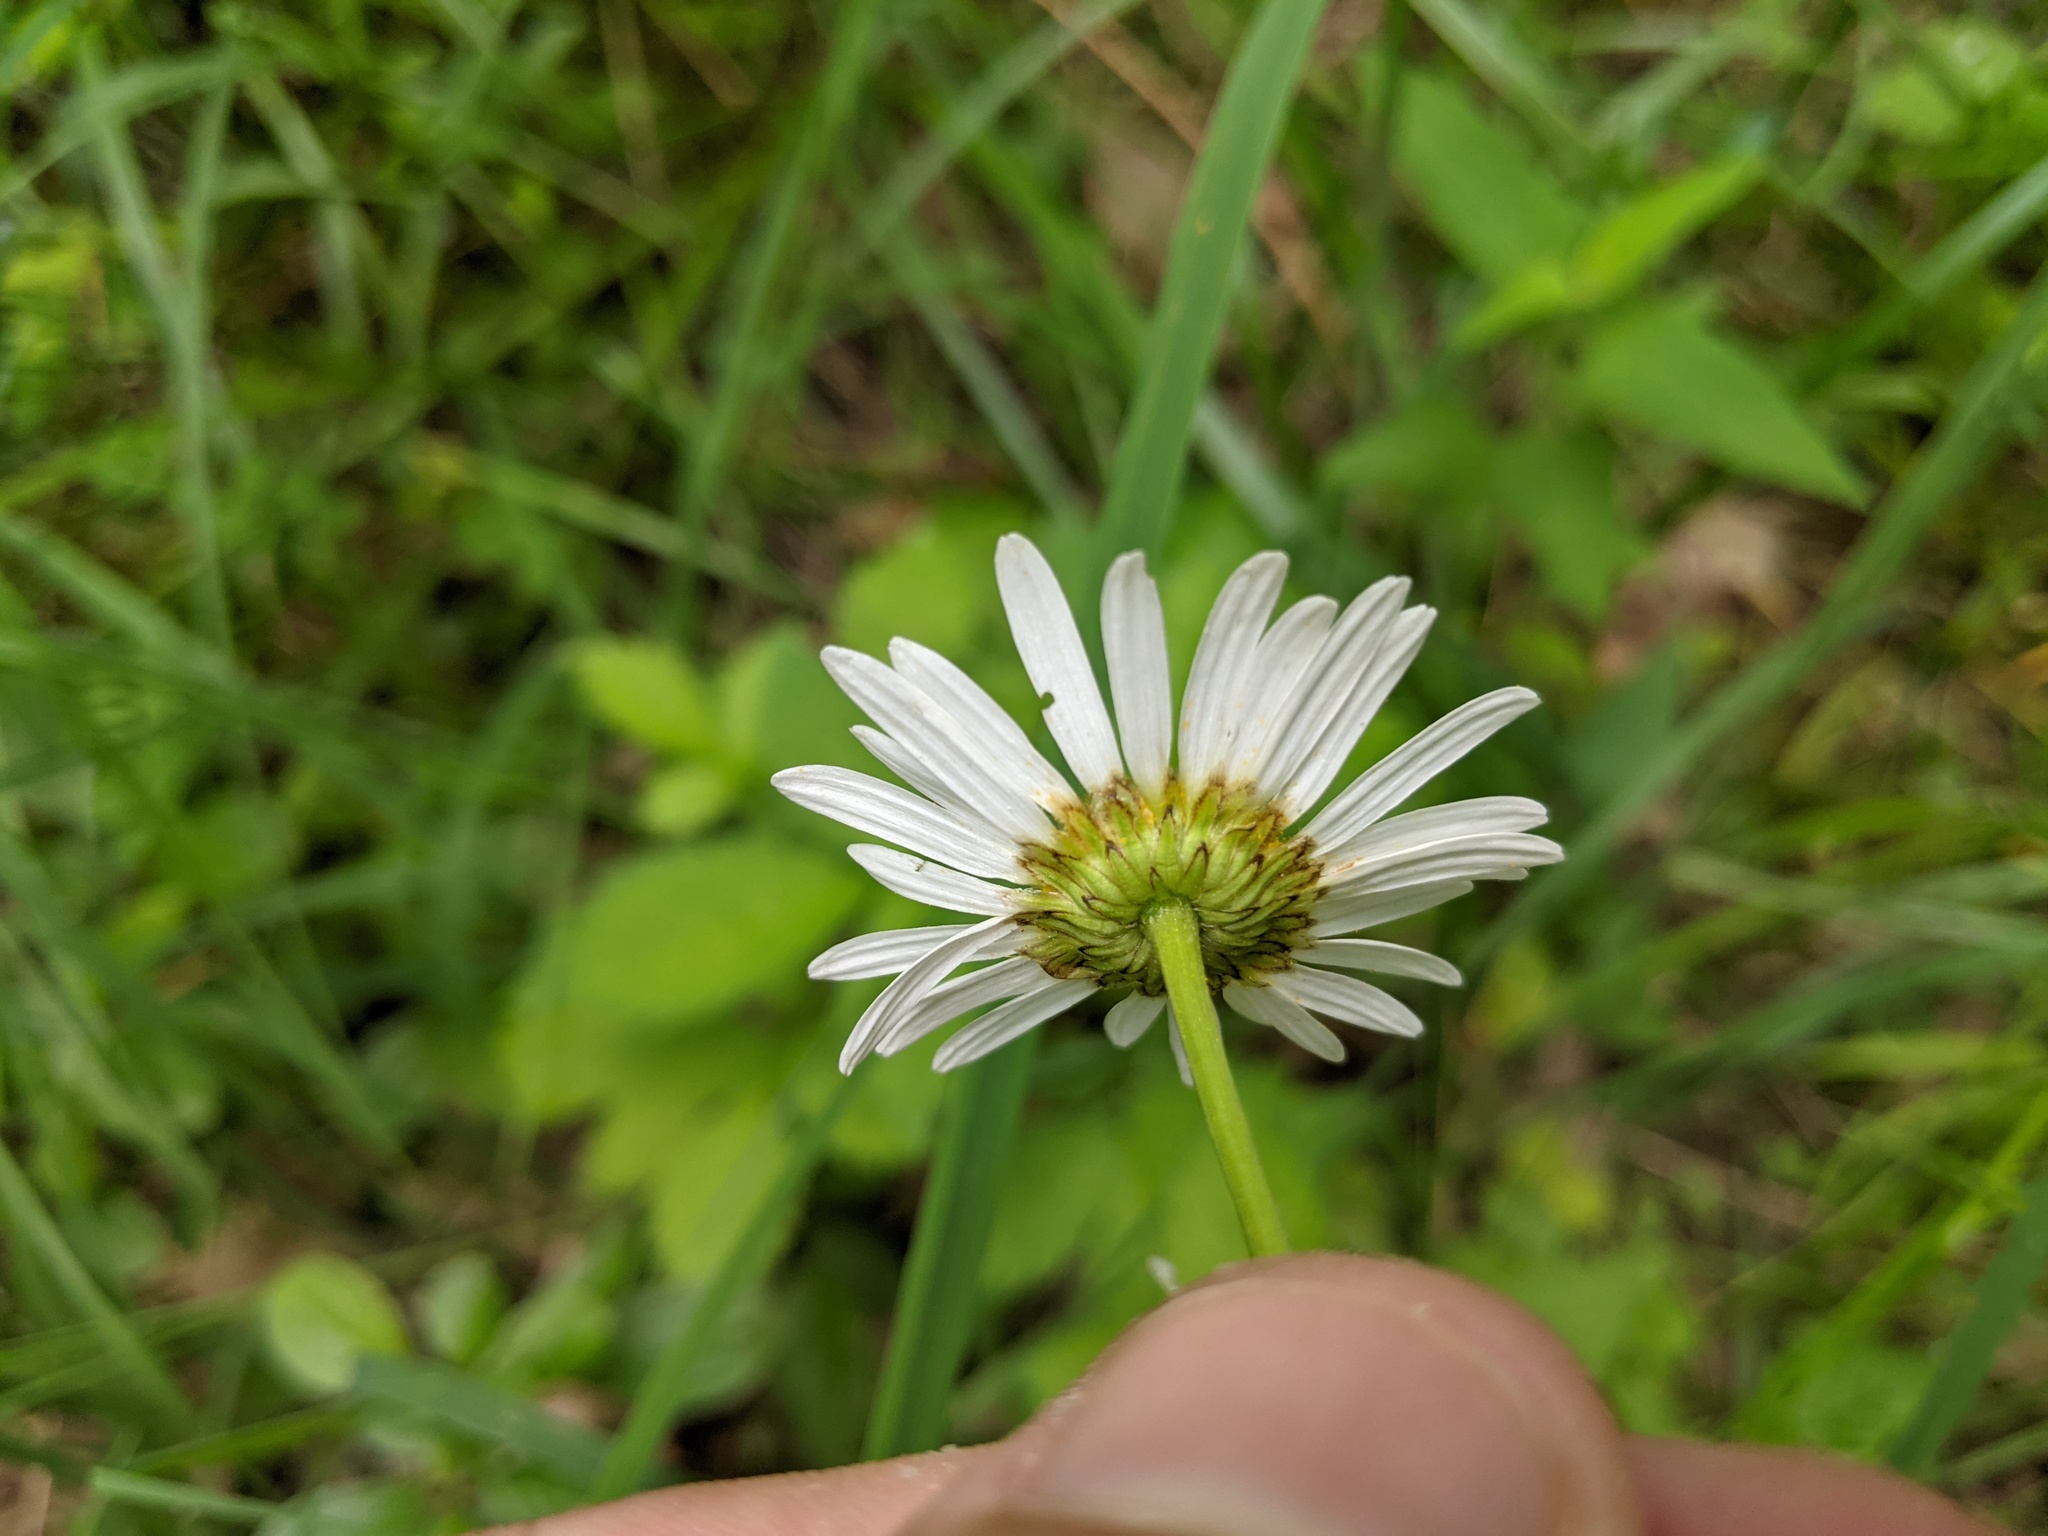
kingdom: Plantae
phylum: Tracheophyta
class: Magnoliopsida
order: Asterales
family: Asteraceae
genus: Leucanthemum
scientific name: Leucanthemum vulgare
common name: Oxeye daisy
